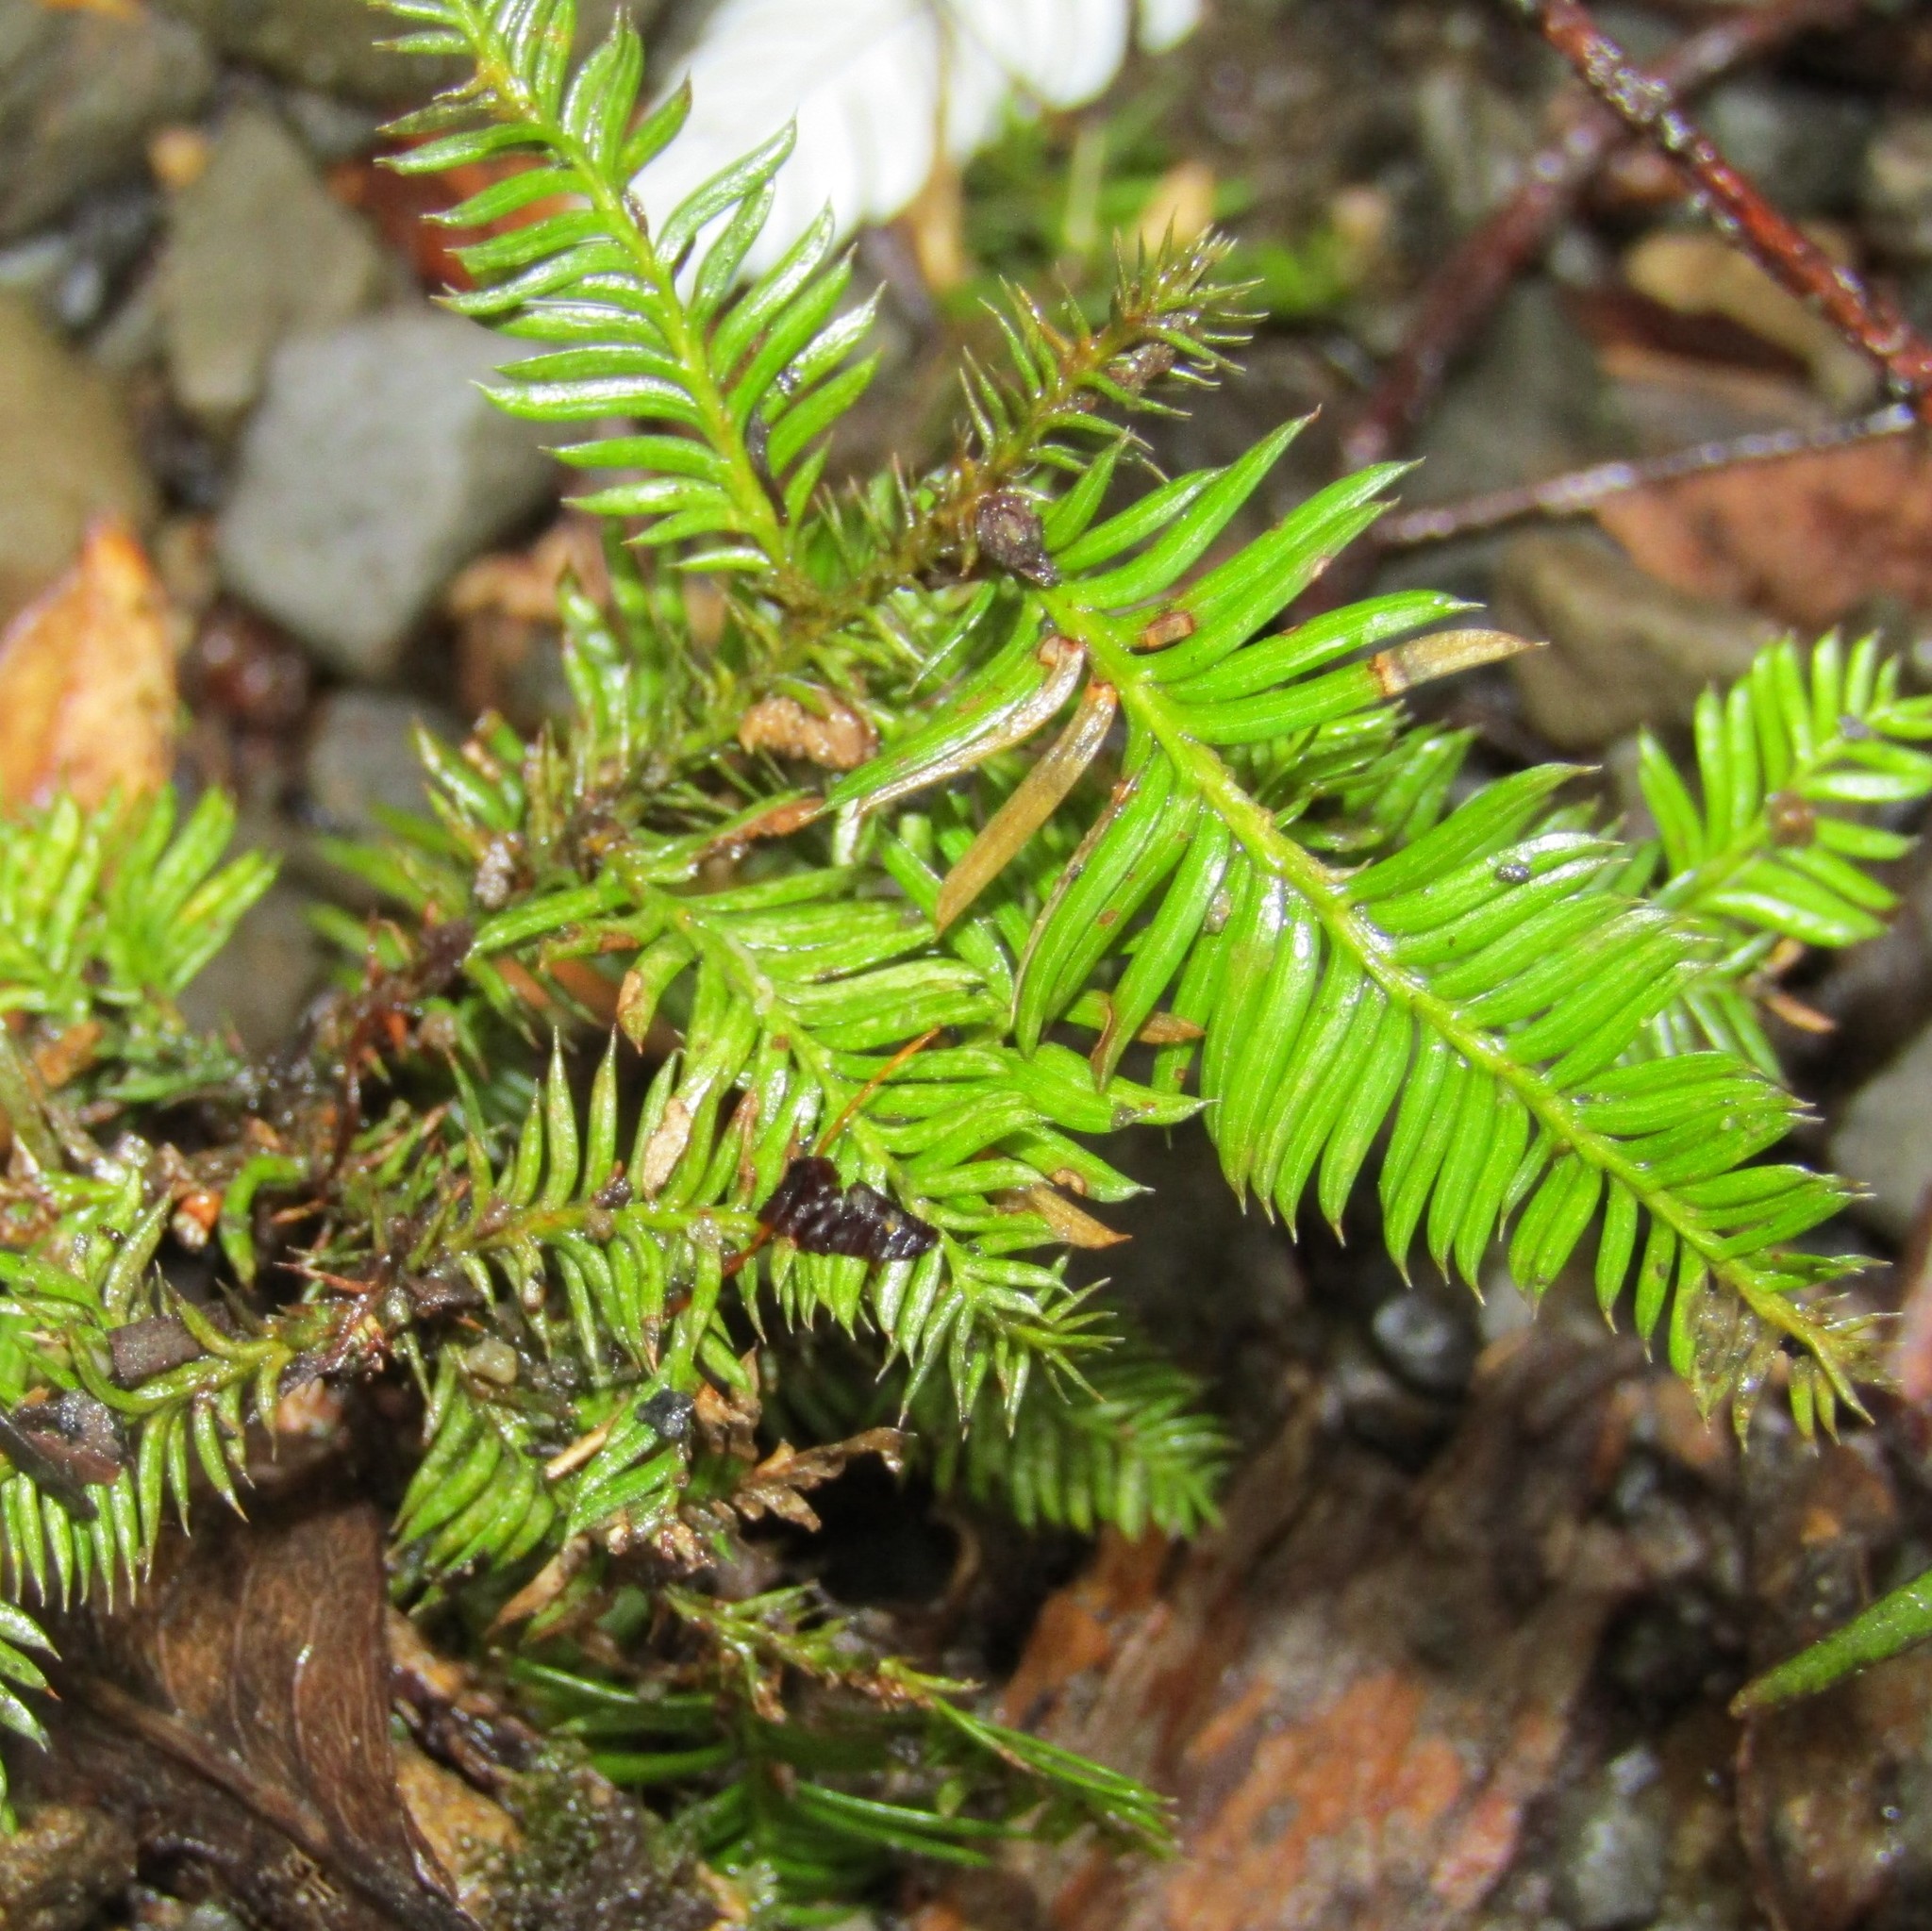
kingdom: Plantae
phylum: Tracheophyta
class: Pinopsida
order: Pinales
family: Podocarpaceae
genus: Dacrycarpus
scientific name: Dacrycarpus dacrydioides
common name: White pine
